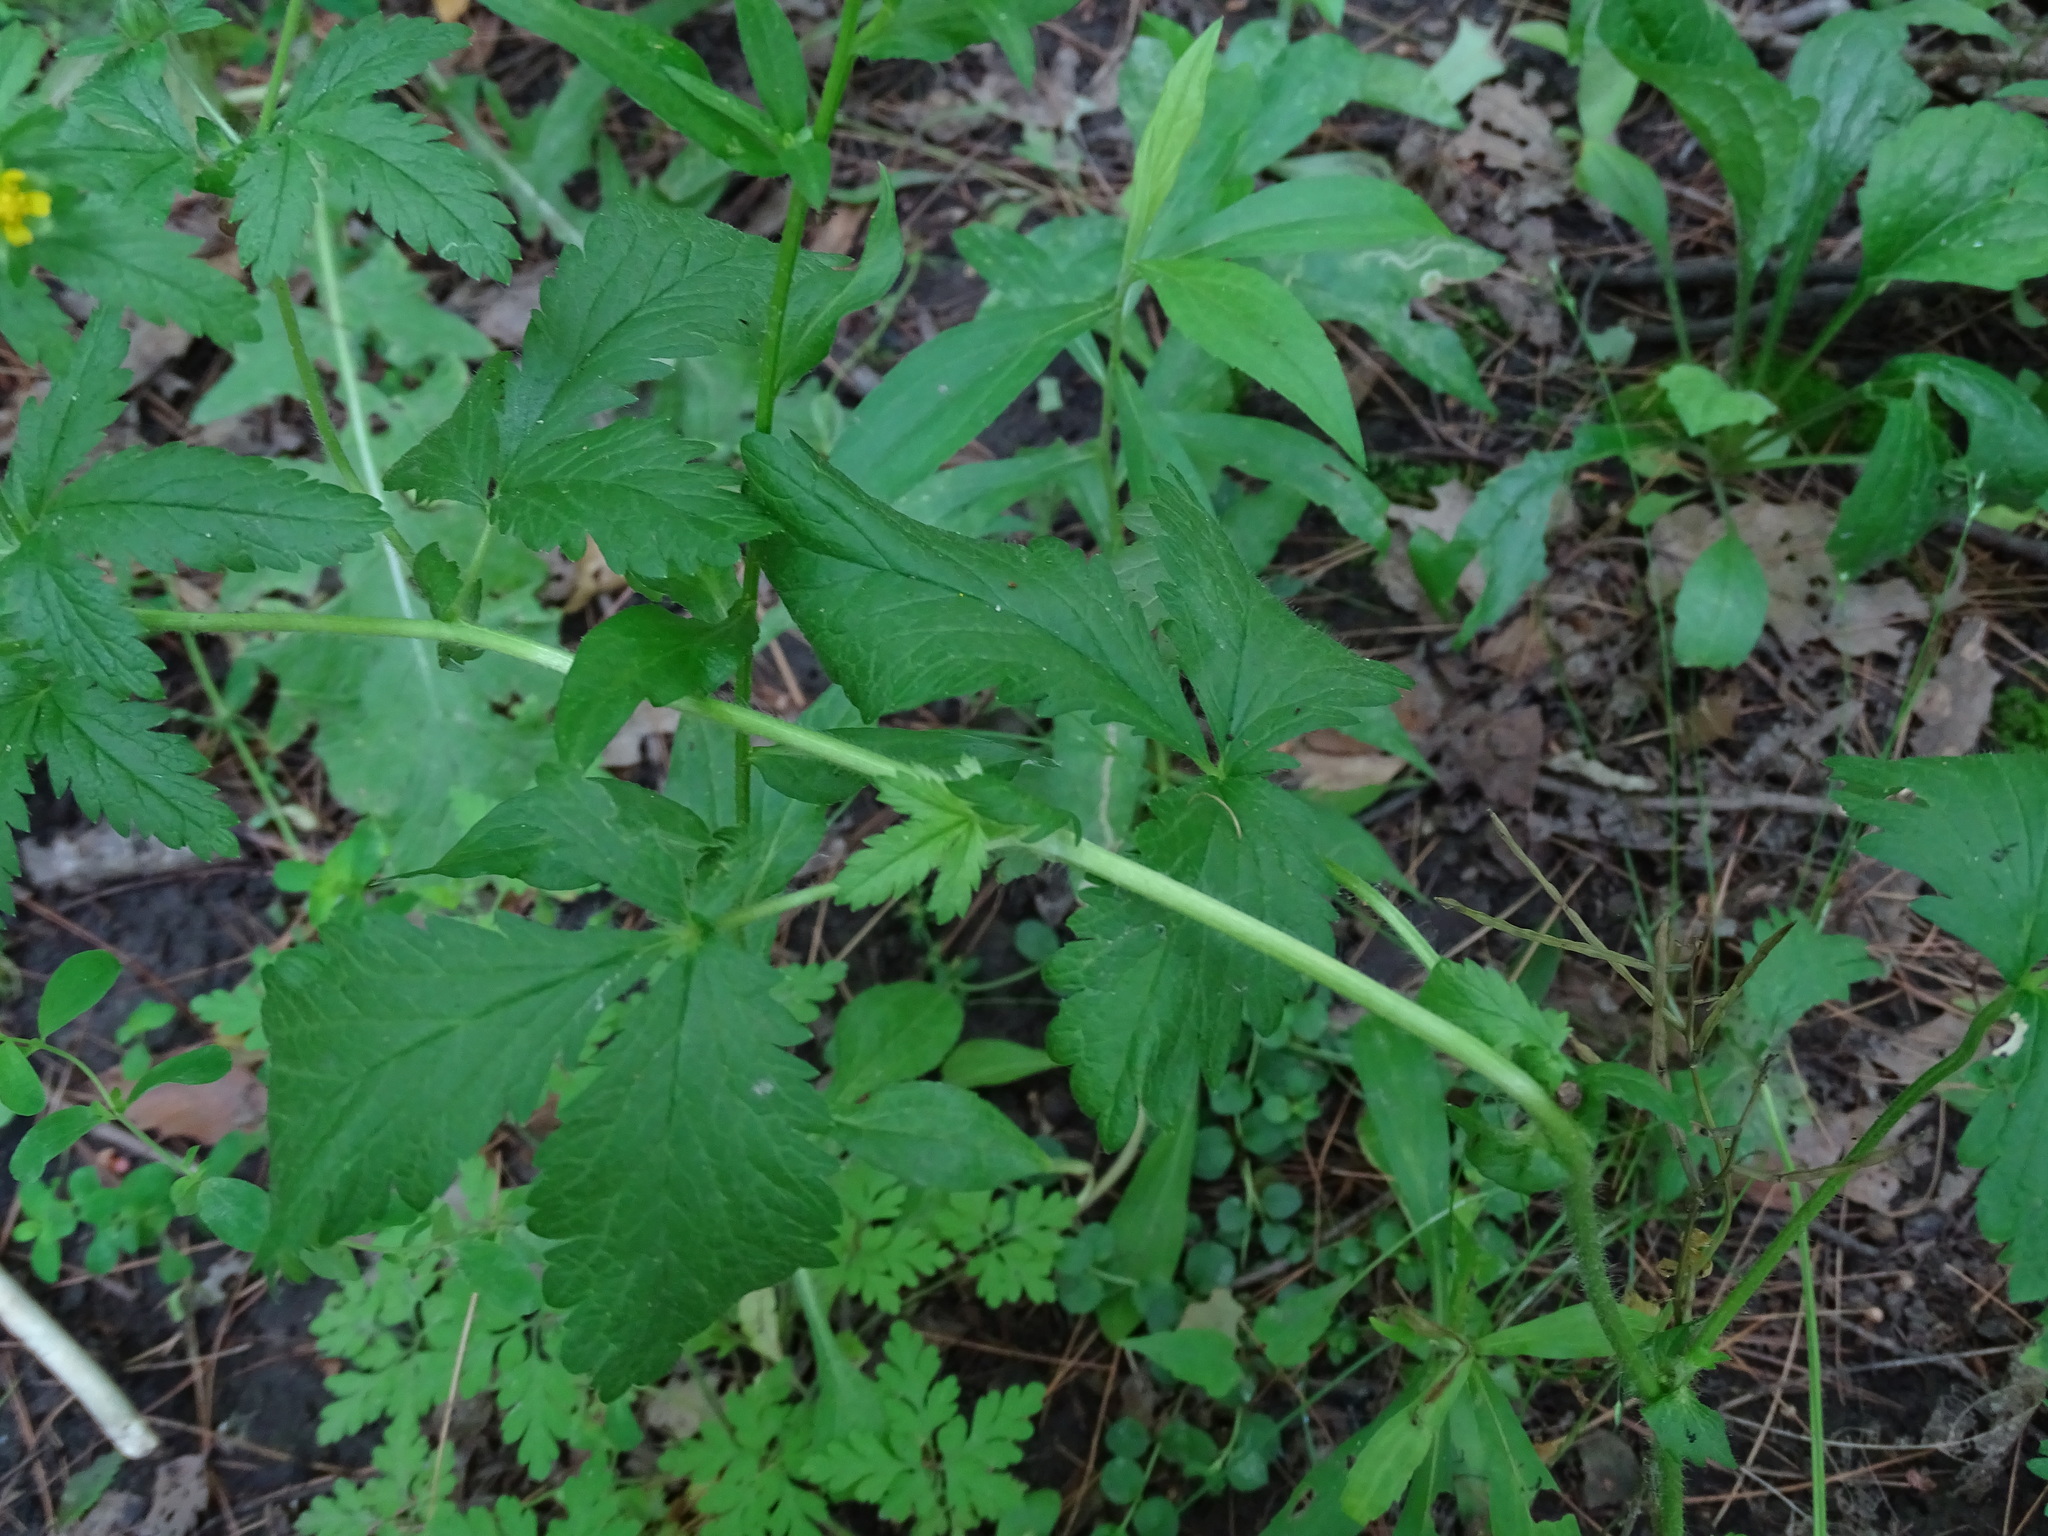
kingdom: Plantae
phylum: Tracheophyta
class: Magnoliopsida
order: Rosales
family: Rosaceae
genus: Potentilla
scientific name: Potentilla norvegica
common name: Ternate-leaved cinquefoil
